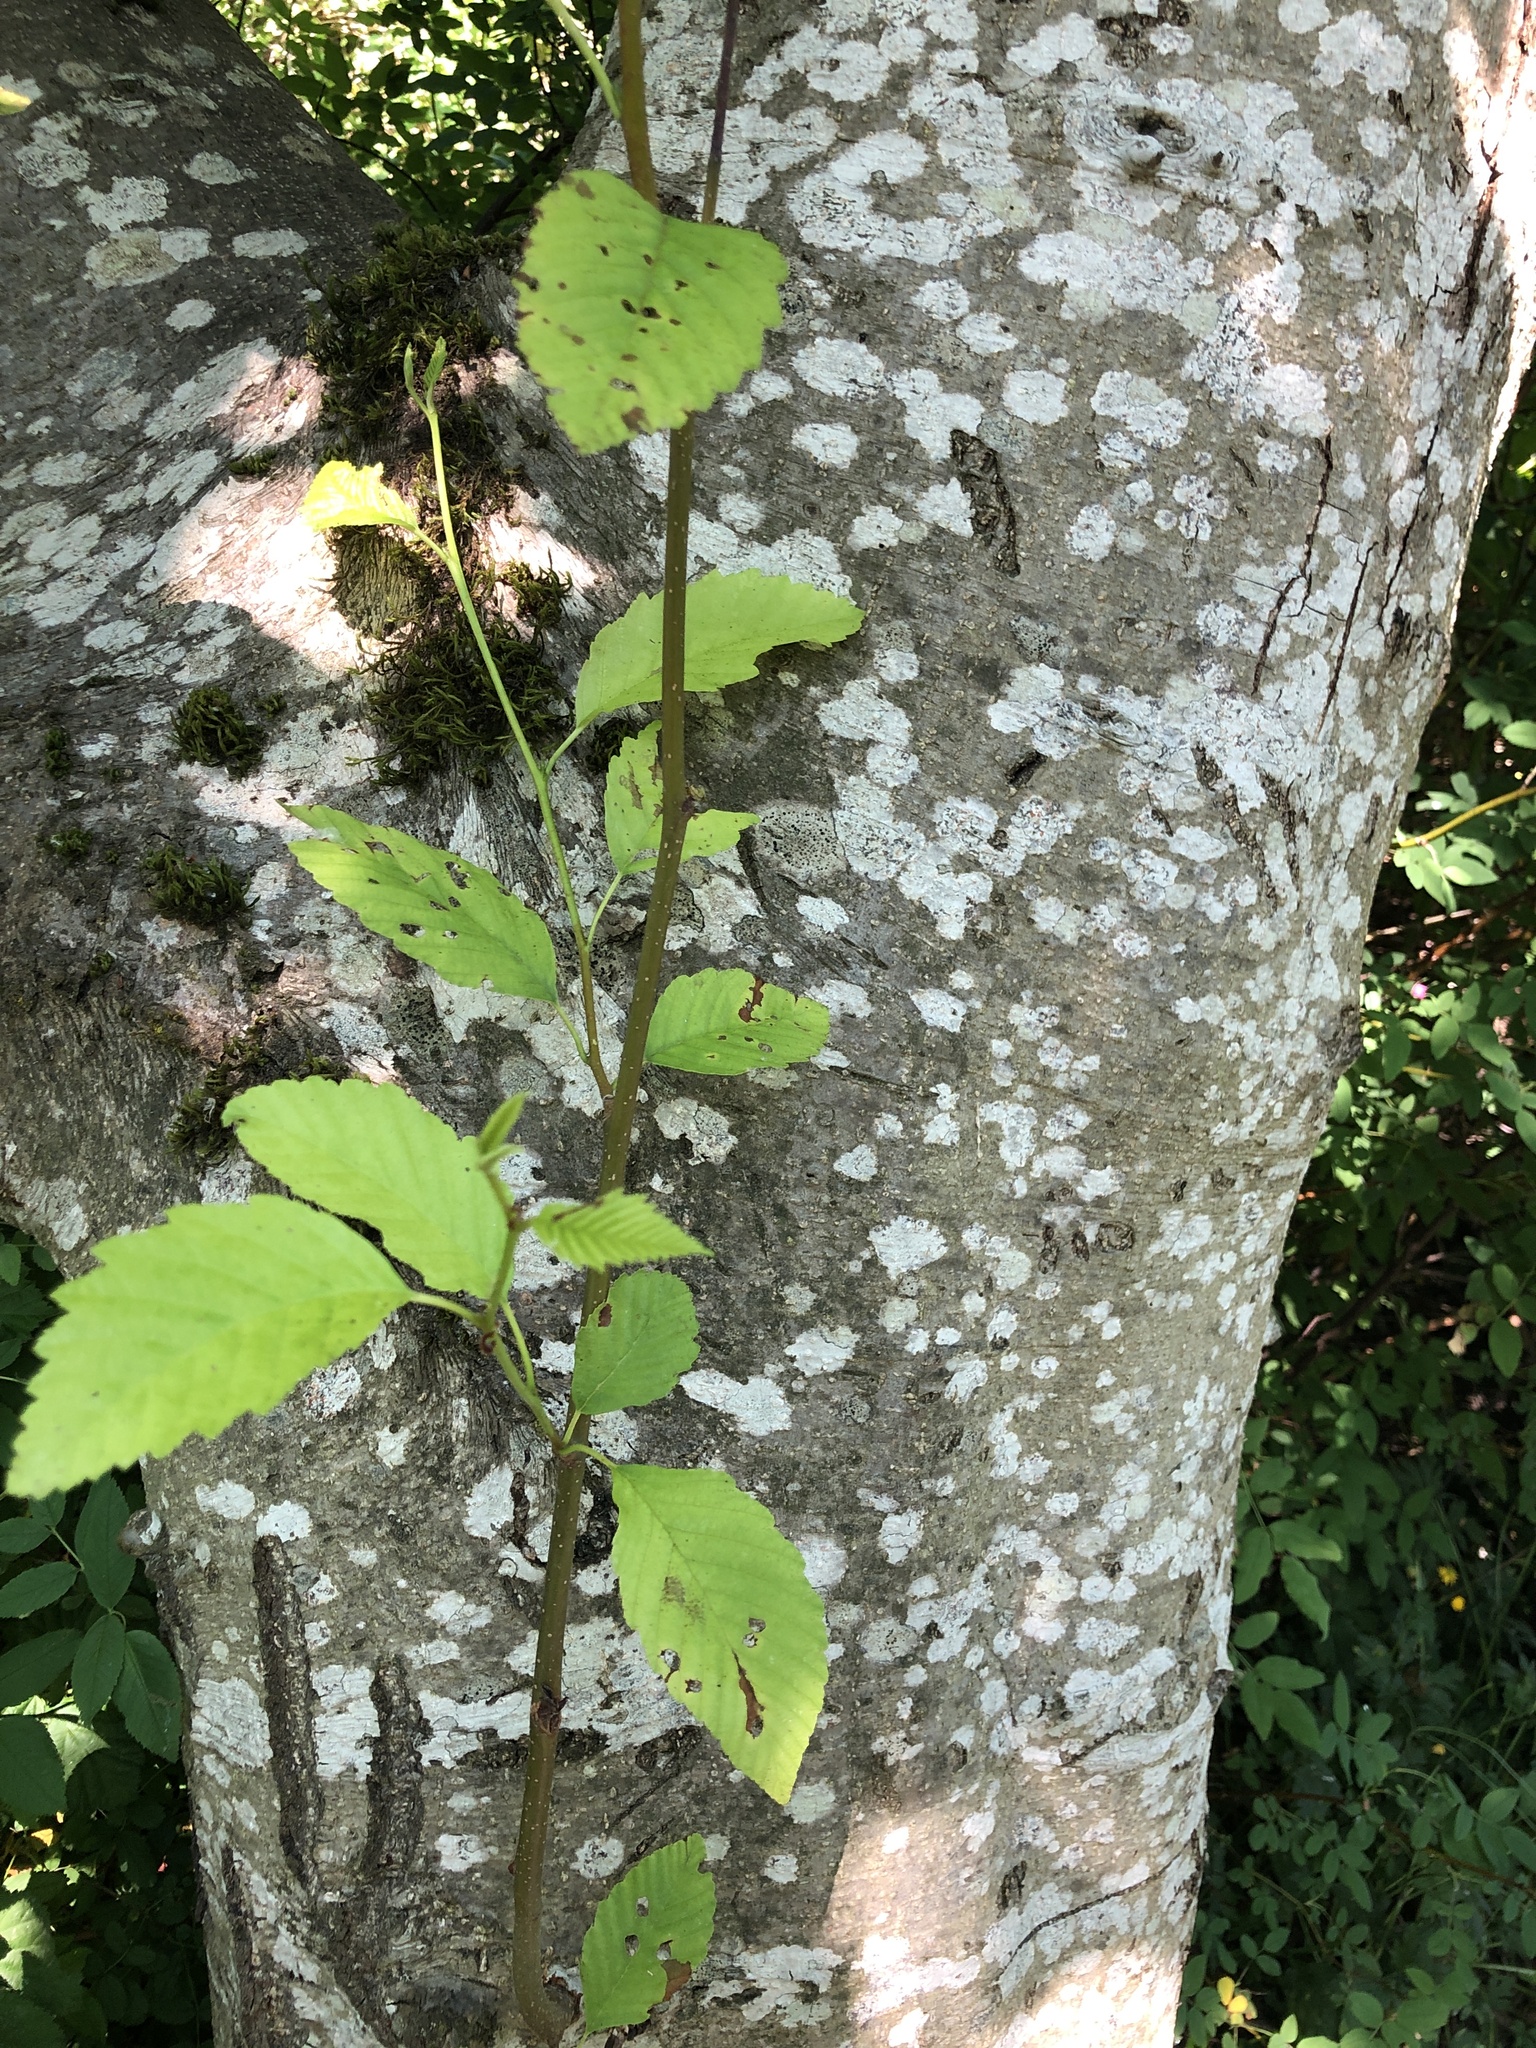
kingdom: Plantae
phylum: Tracheophyta
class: Magnoliopsida
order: Fagales
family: Betulaceae
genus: Alnus
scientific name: Alnus rubra
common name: Red alder
